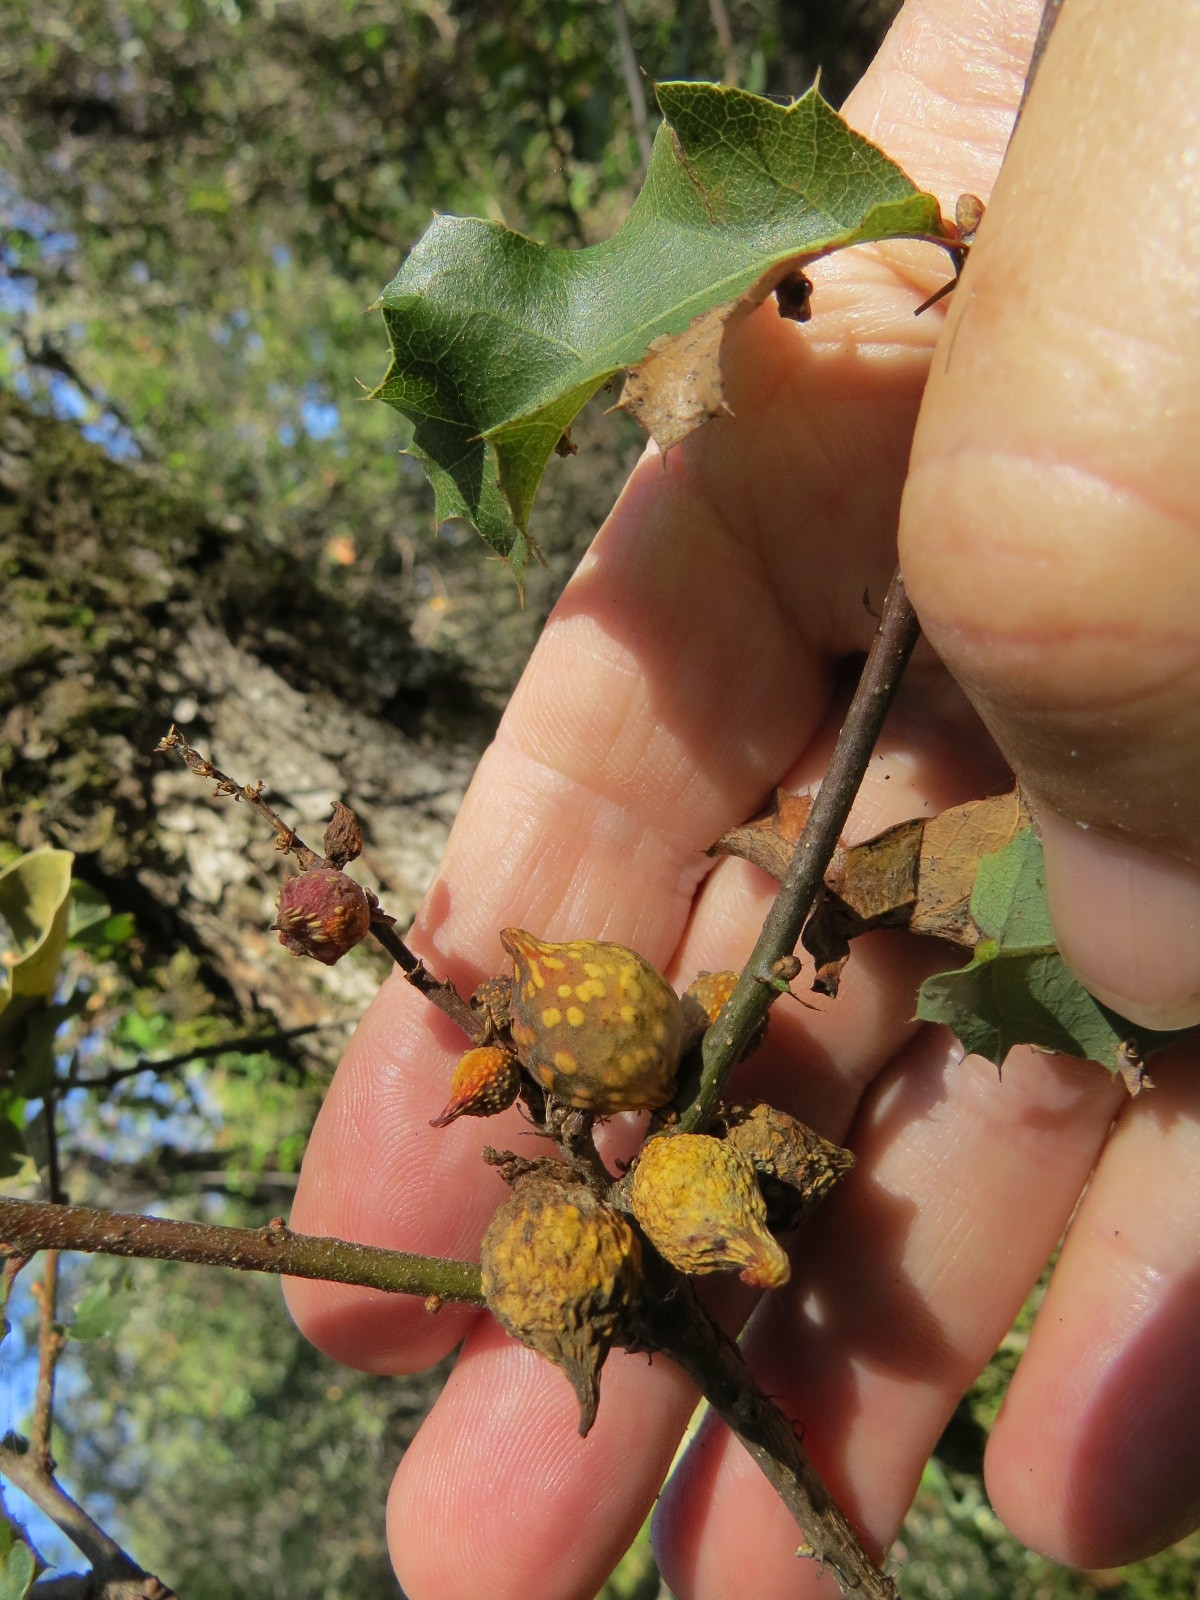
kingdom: Animalia
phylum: Arthropoda
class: Insecta
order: Hymenoptera
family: Cynipidae
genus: Burnettweldia
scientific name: Burnettweldia
